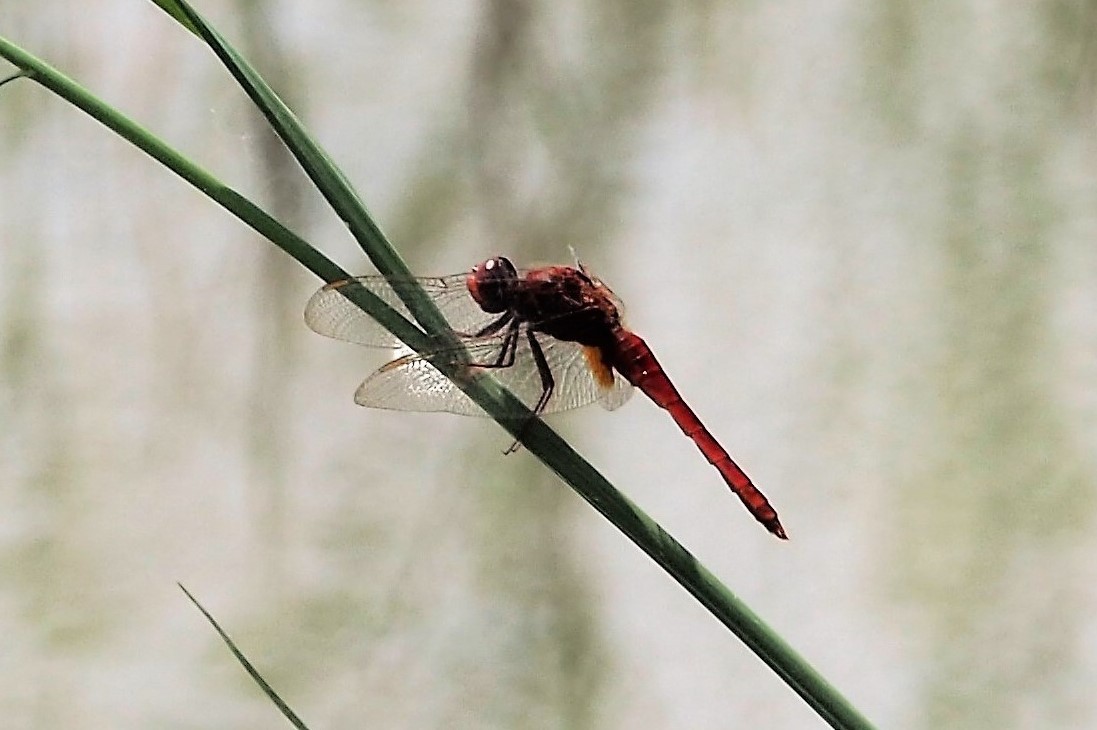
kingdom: Animalia
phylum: Arthropoda
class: Insecta
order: Odonata
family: Libellulidae
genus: Macrodiplax
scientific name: Macrodiplax cora
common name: Coastal glider
